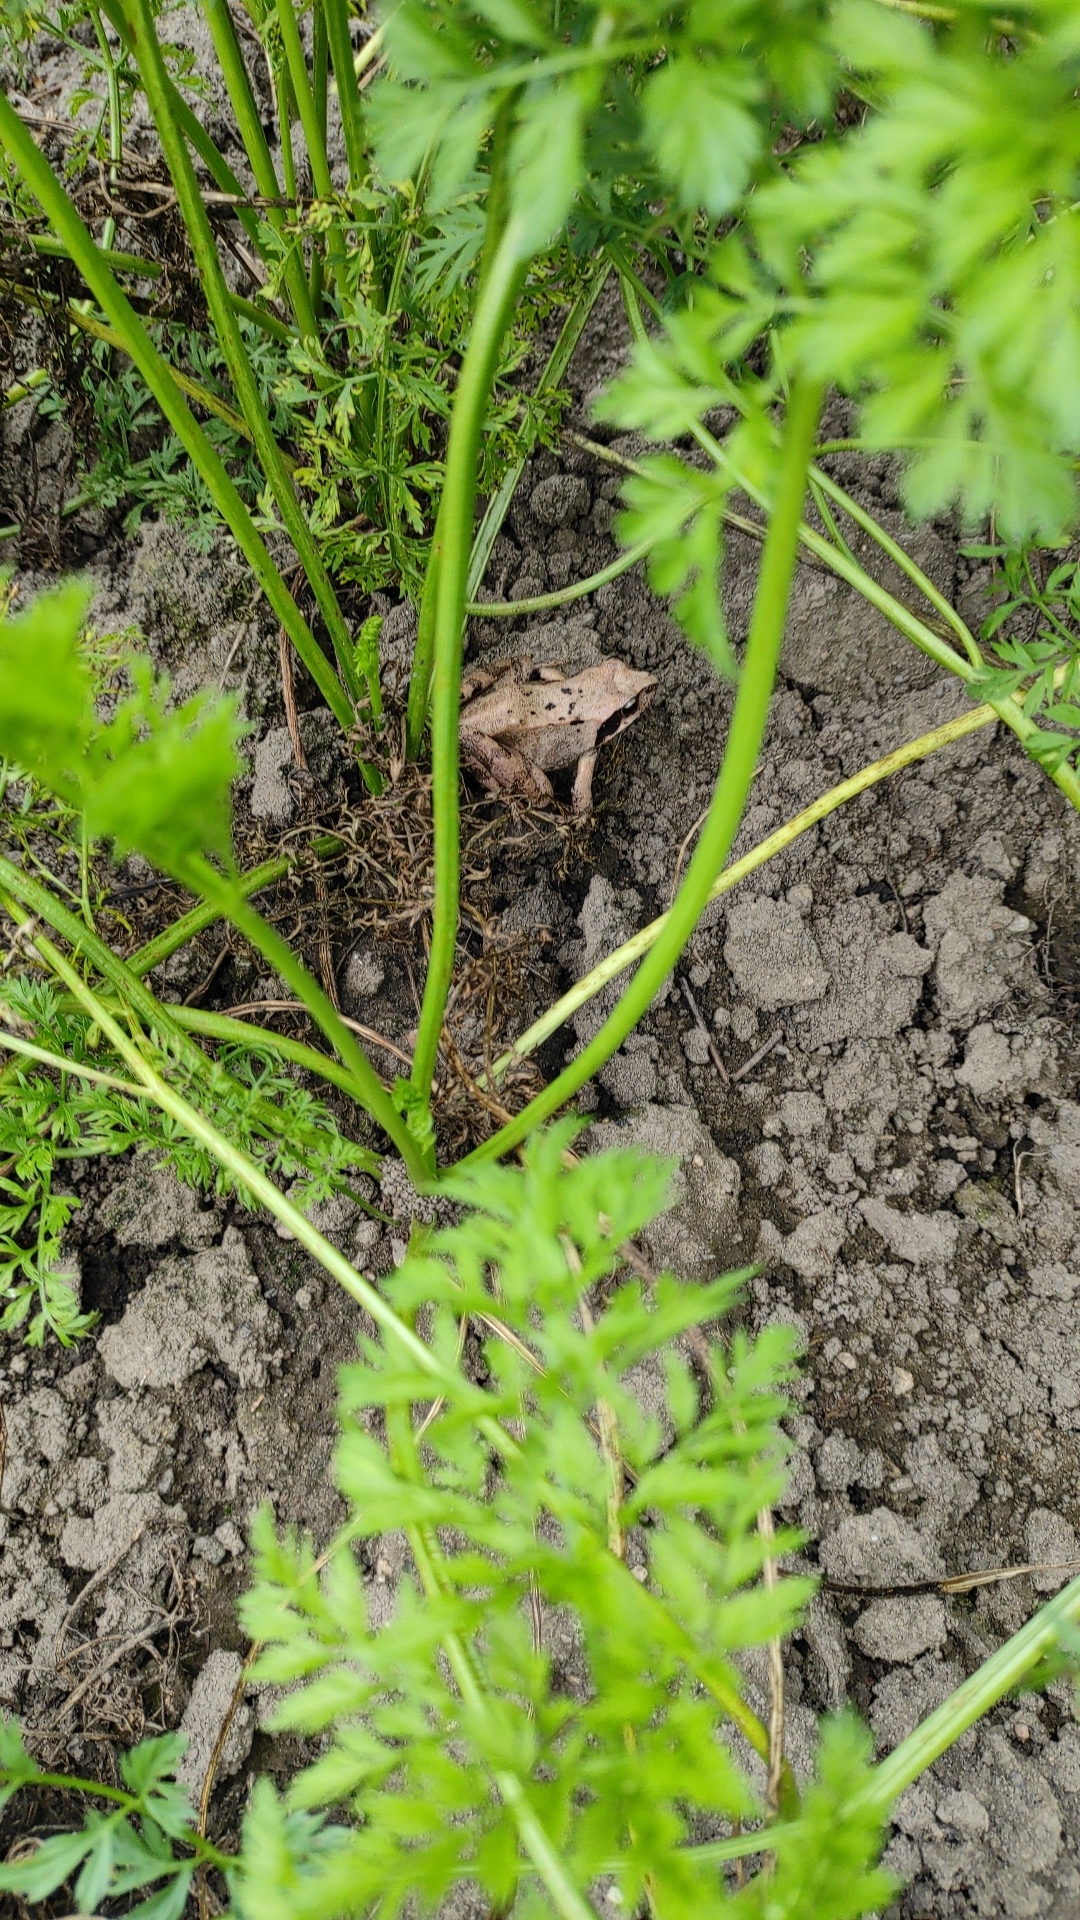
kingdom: Animalia
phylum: Chordata
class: Amphibia
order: Anura
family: Ranidae
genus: Rana
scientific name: Rana dybowskii
